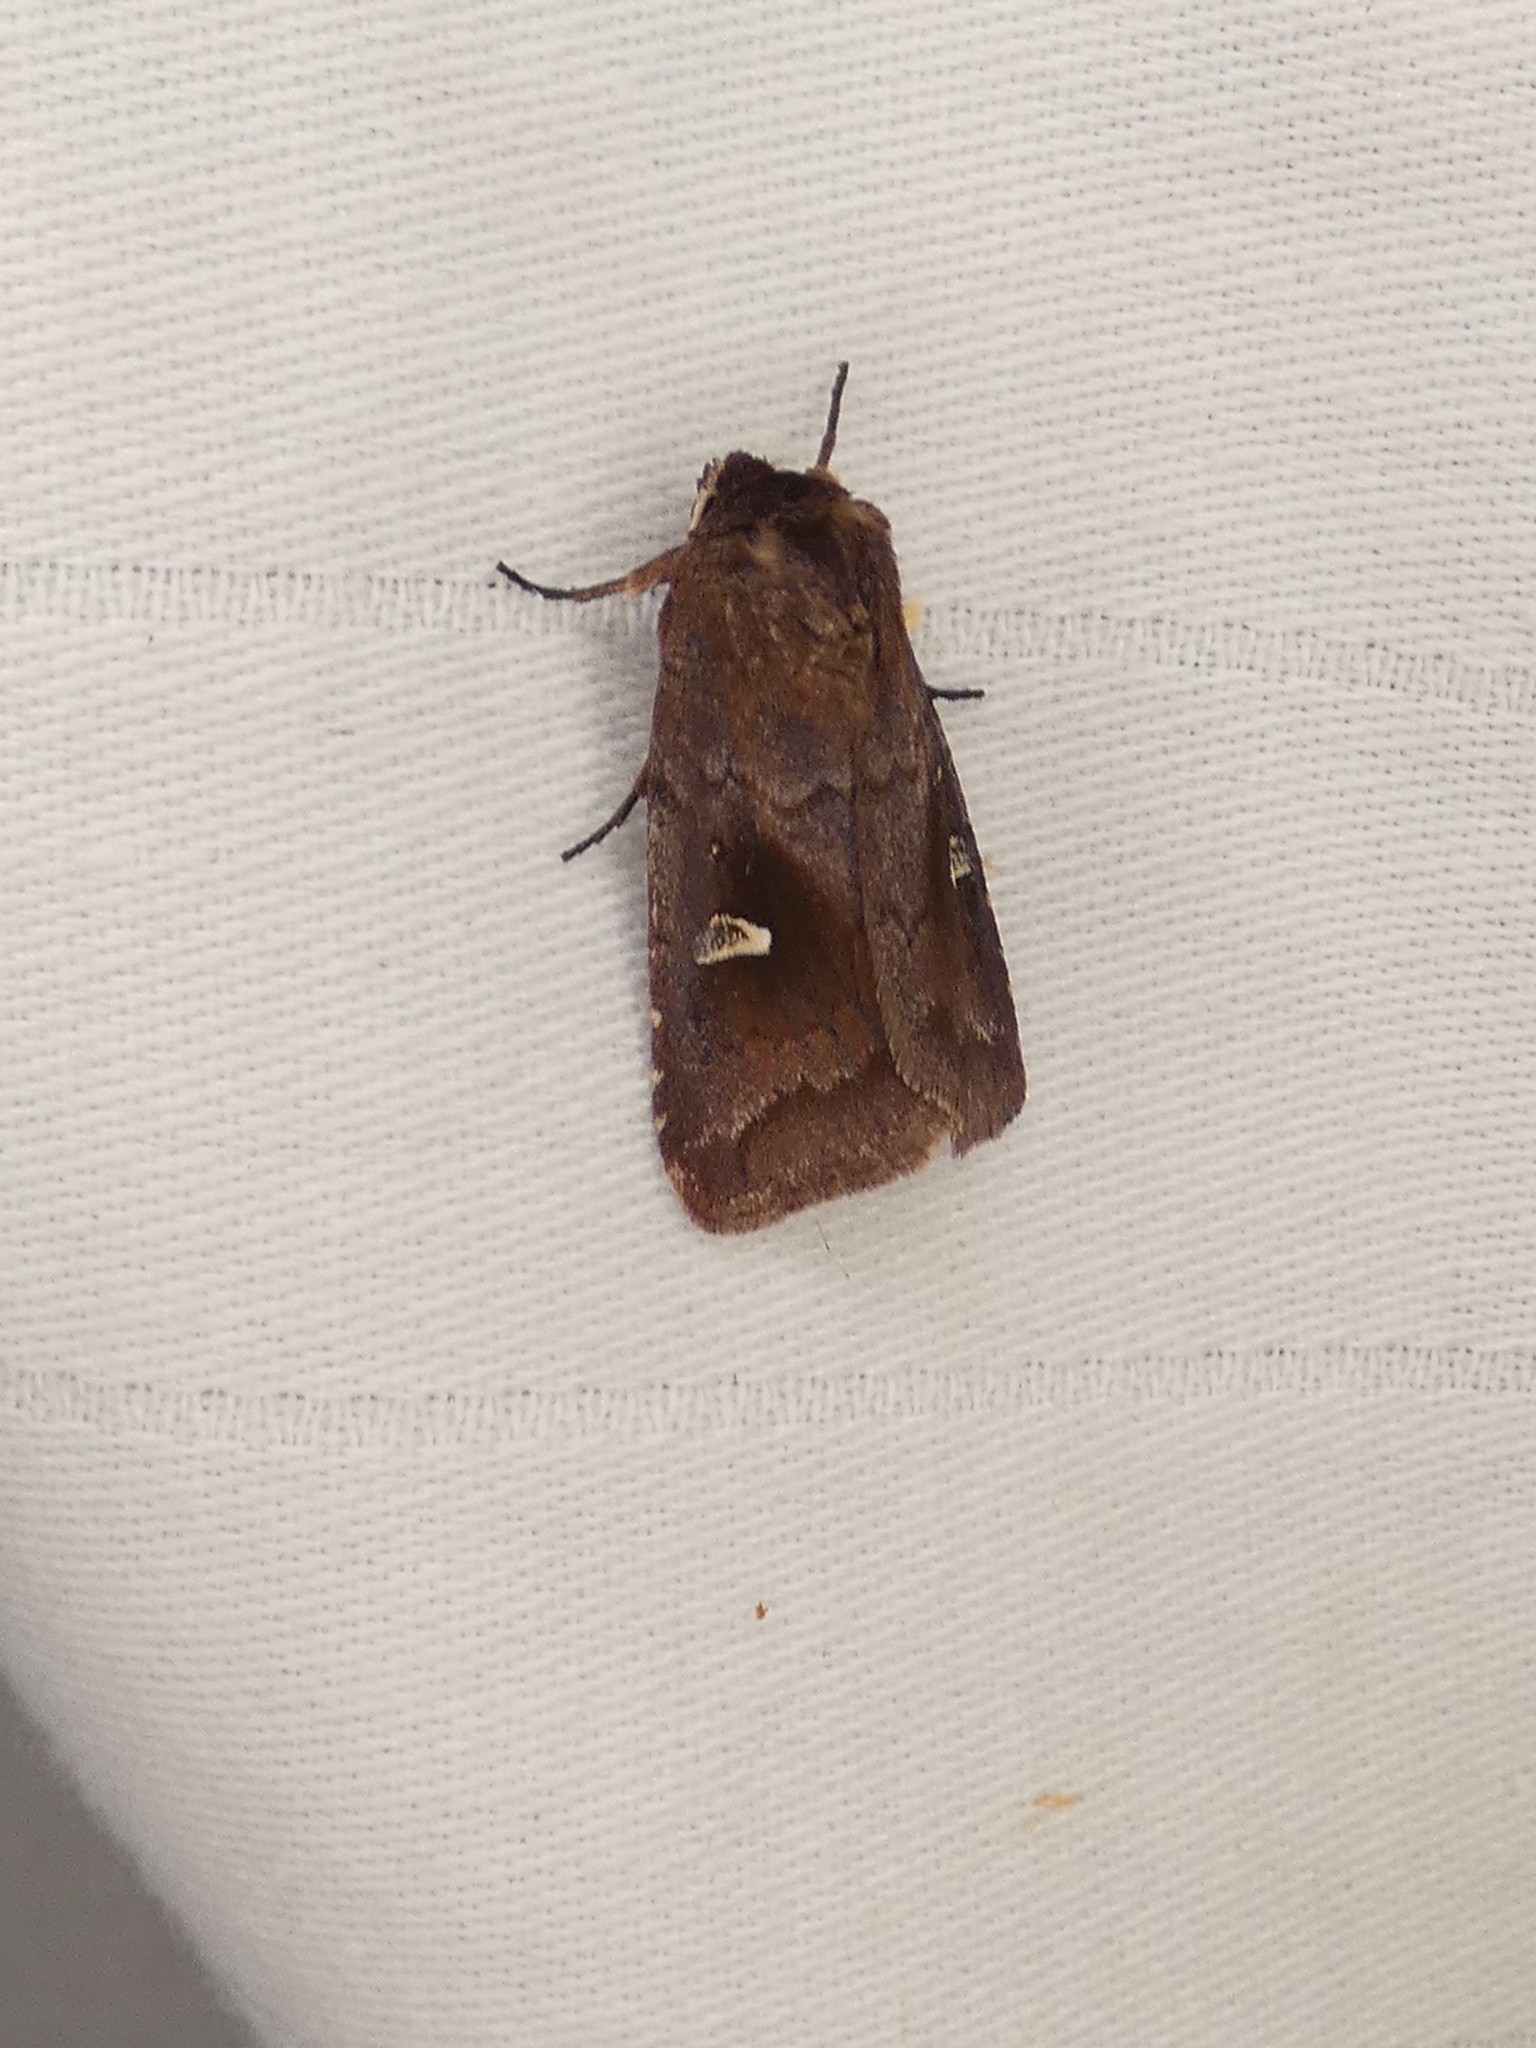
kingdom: Animalia
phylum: Arthropoda
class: Insecta
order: Lepidoptera
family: Noctuidae
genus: Iodopepla
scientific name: Iodopepla ualbum
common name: White-eyed borer moth
